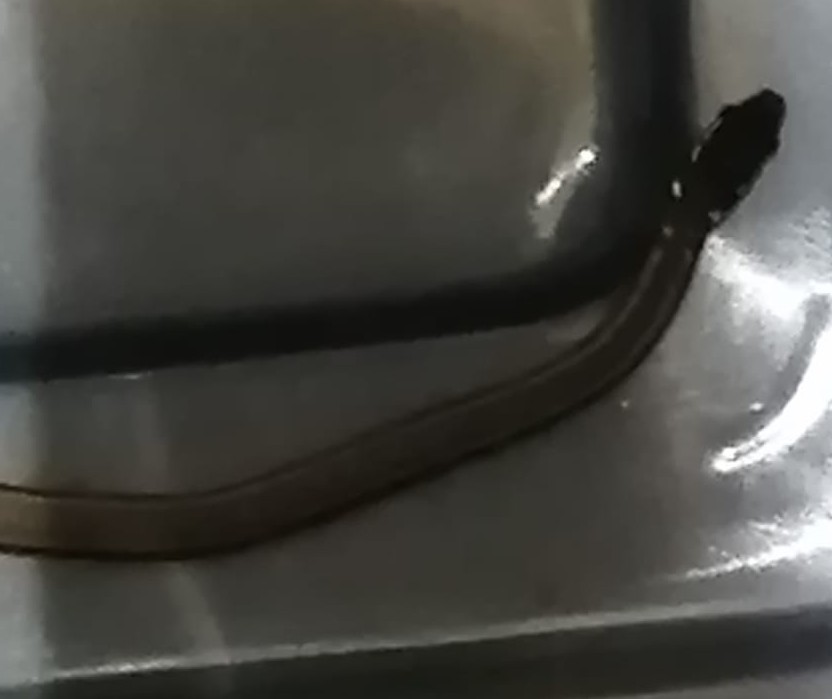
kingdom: Animalia
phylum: Chordata
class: Squamata
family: Colubridae
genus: Coniophanes
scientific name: Coniophanes meridanus
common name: Peninsula stripeless snake
